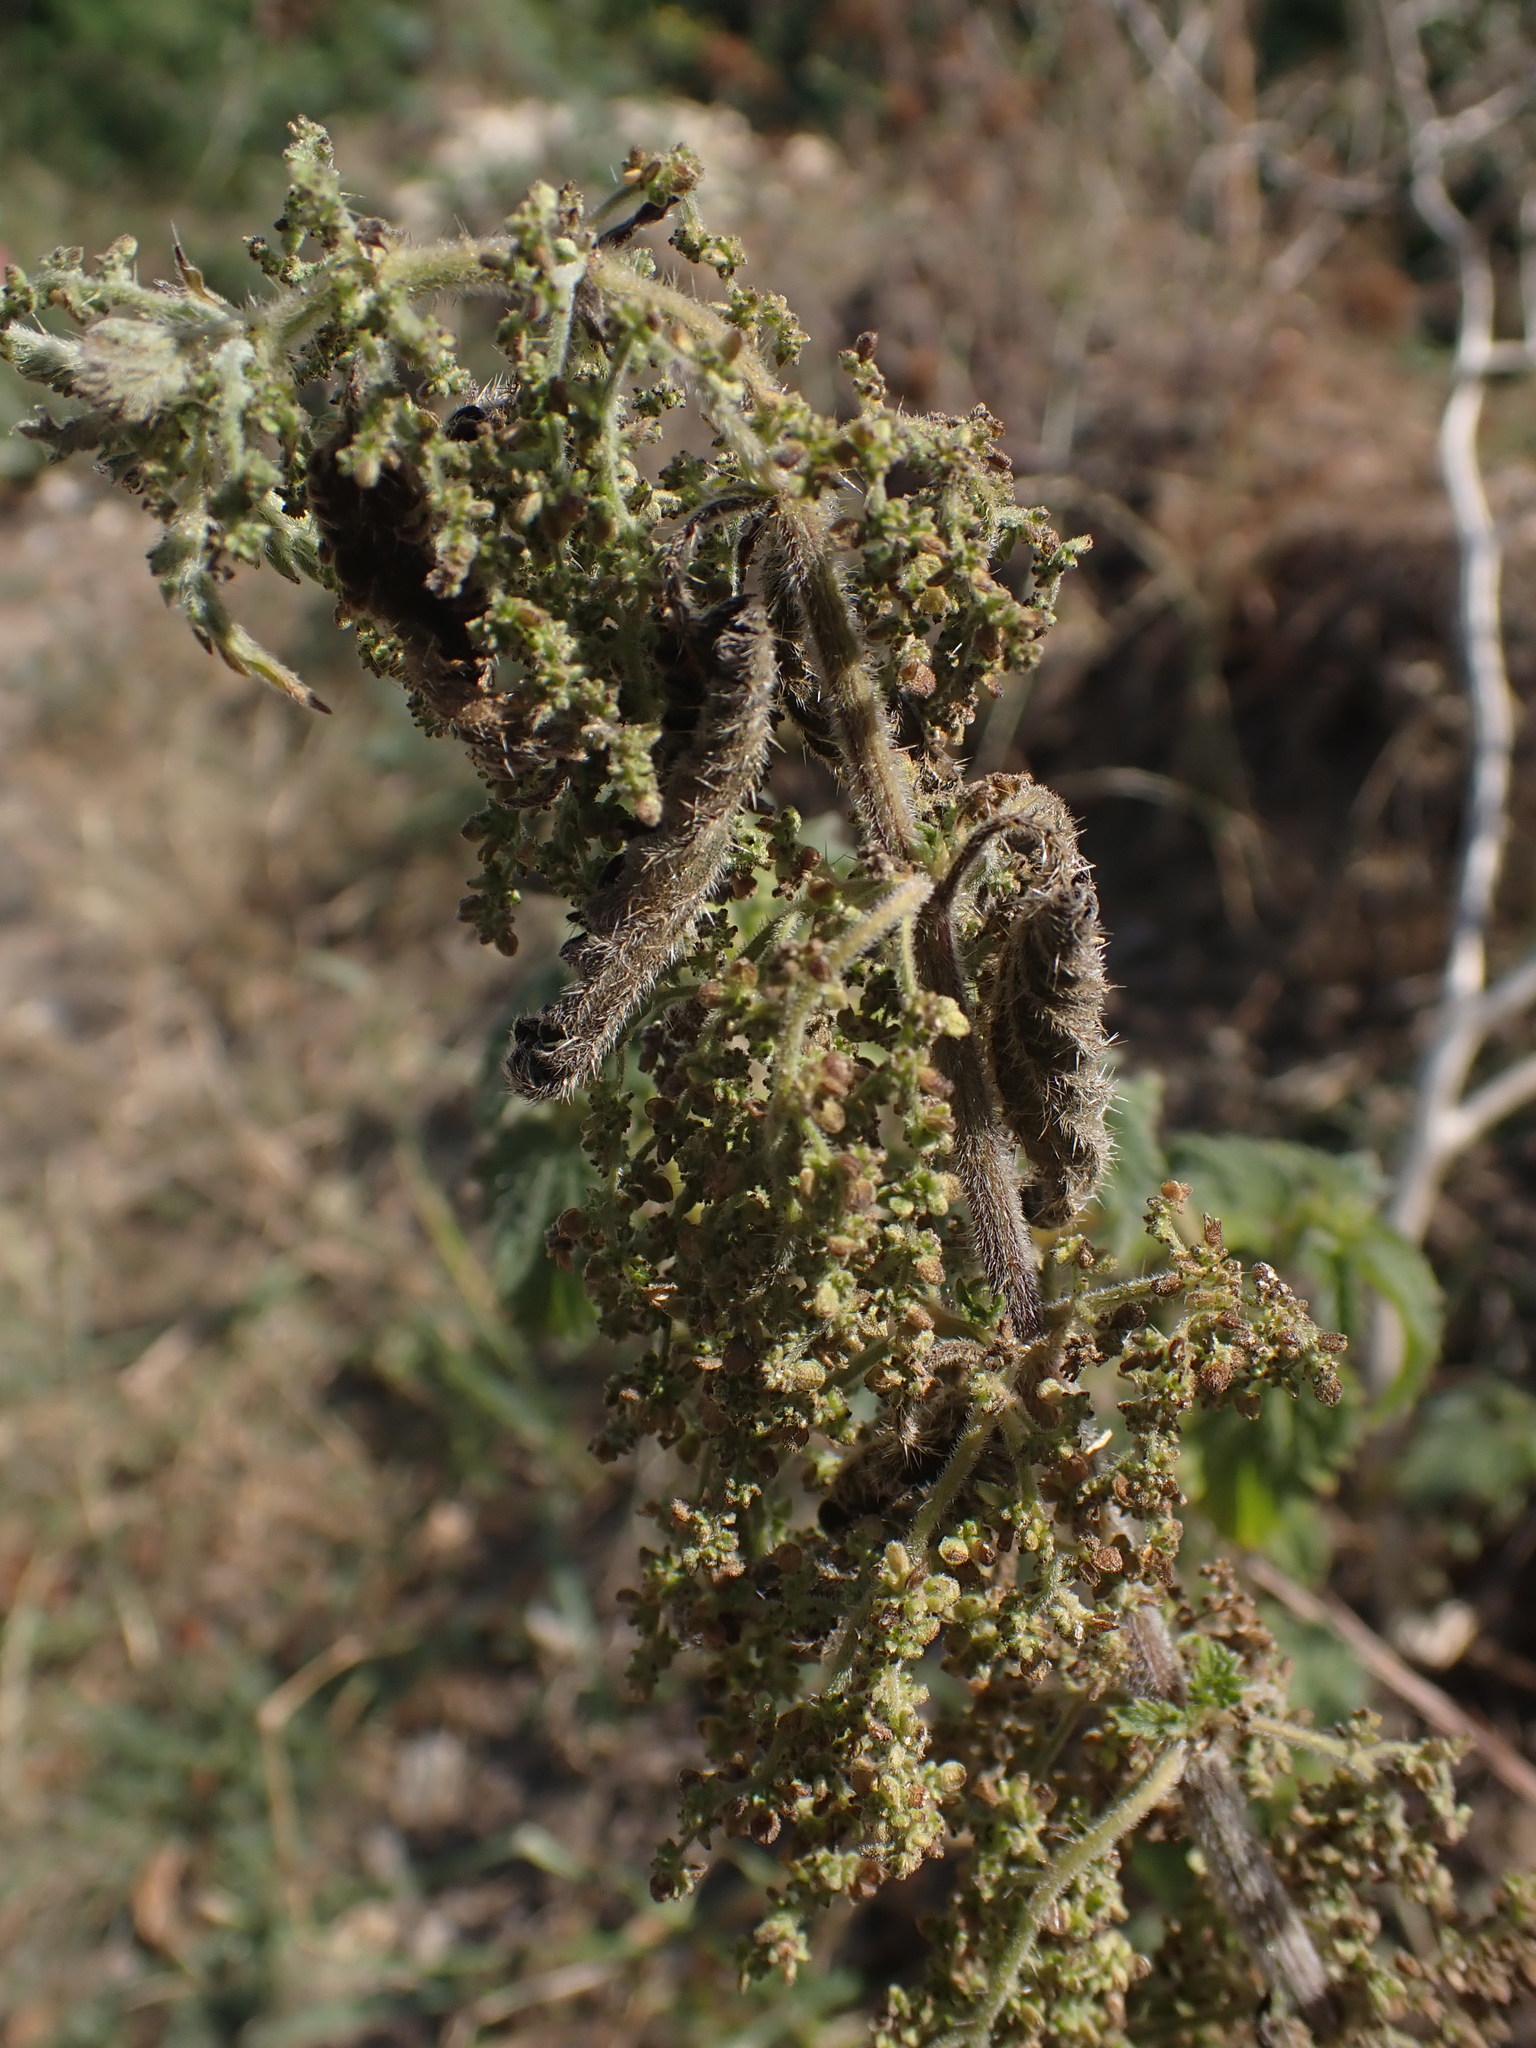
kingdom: Plantae
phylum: Tracheophyta
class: Magnoliopsida
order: Rosales
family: Urticaceae
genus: Urtica
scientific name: Urtica dioica
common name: Common nettle
